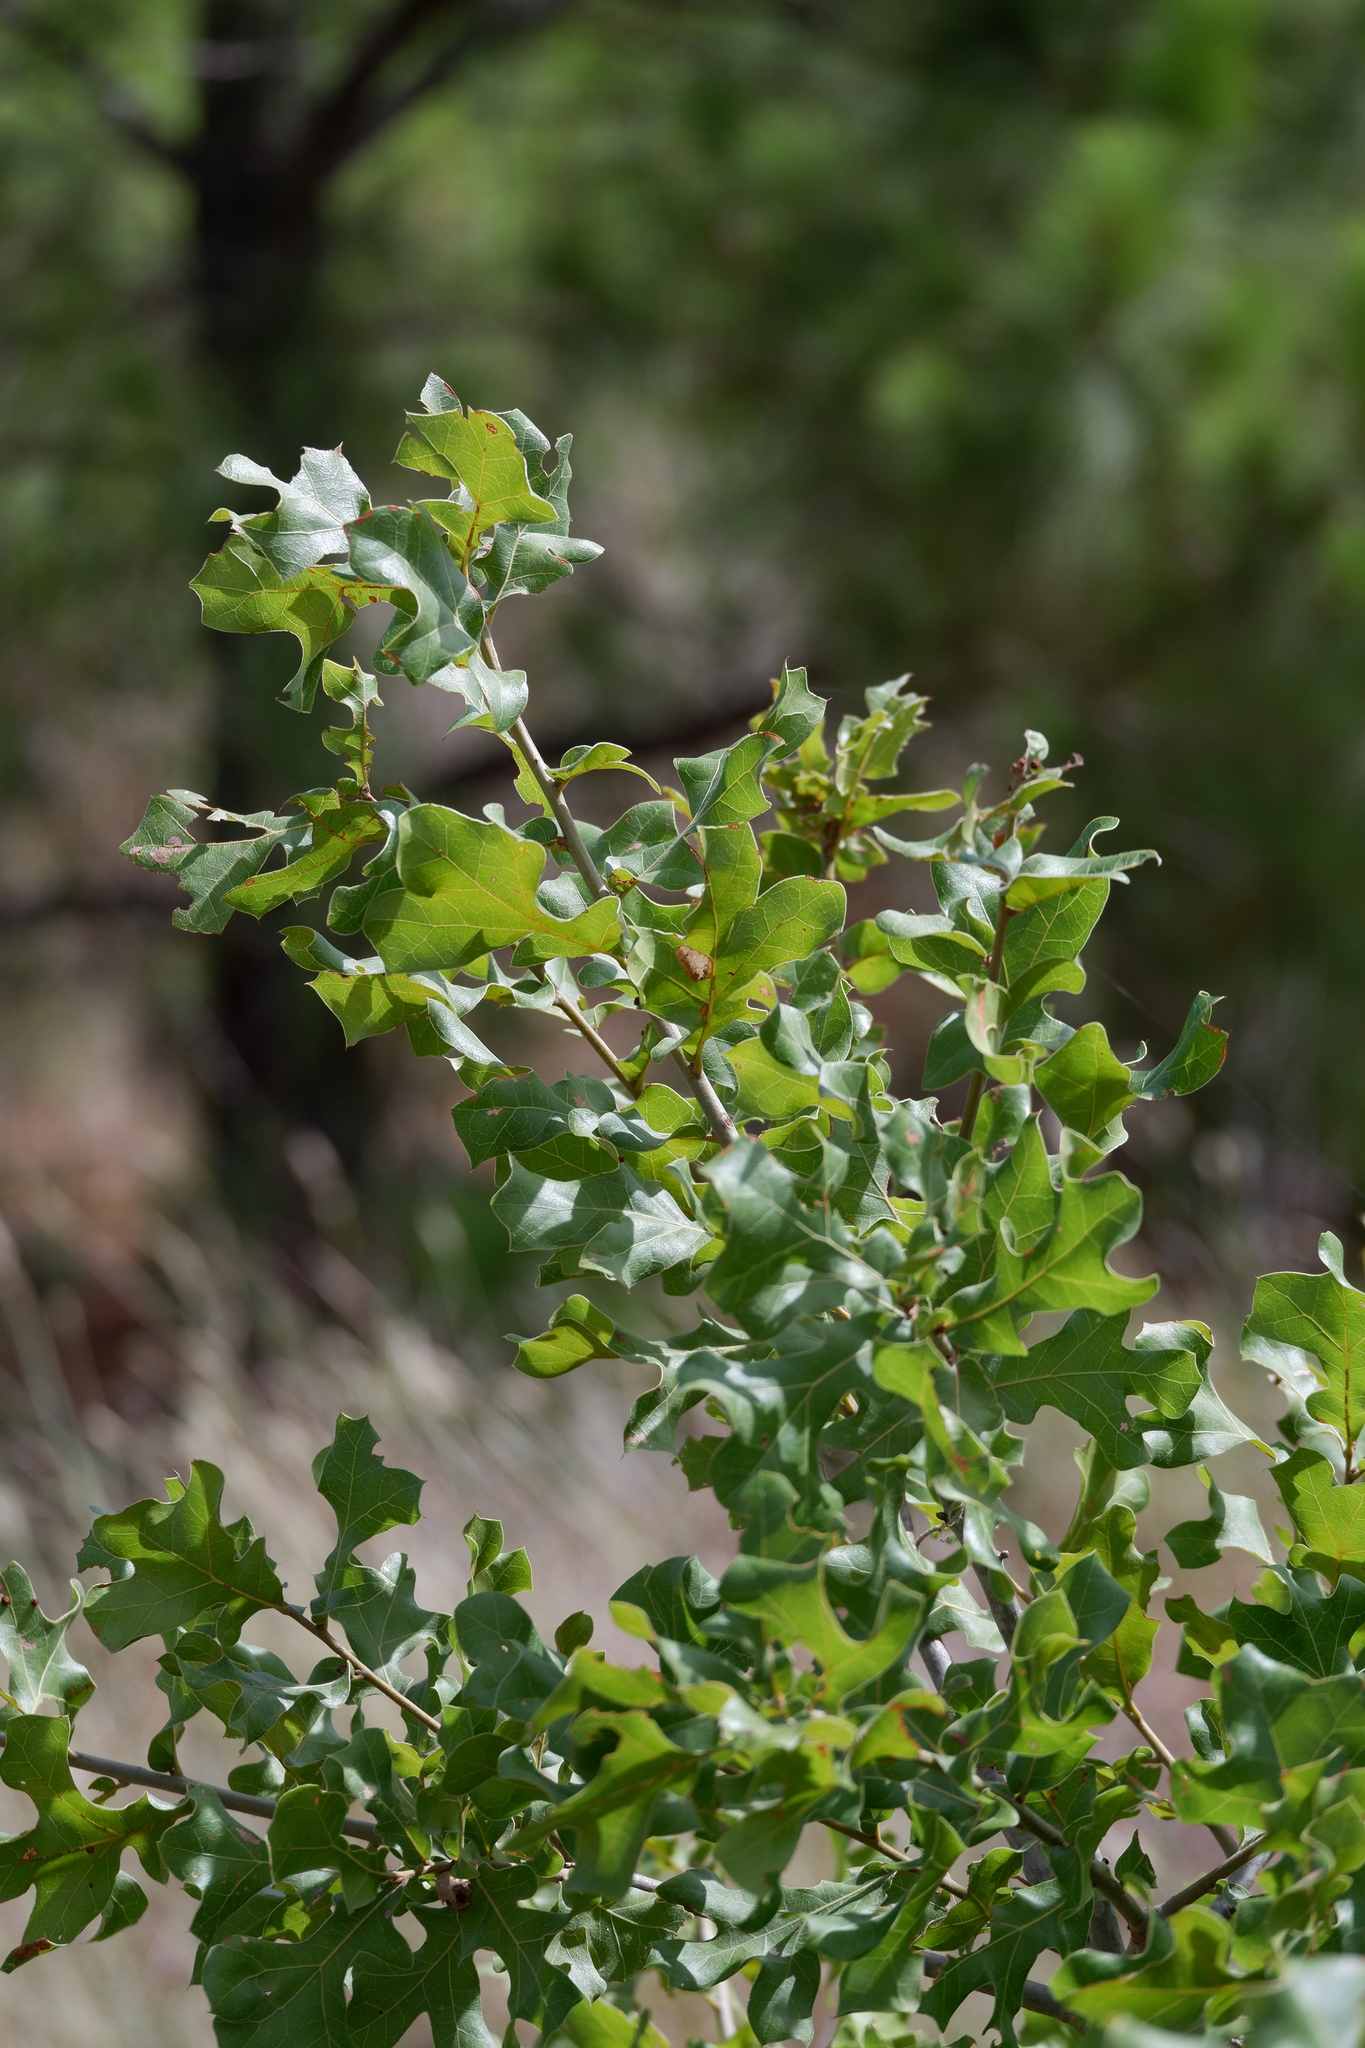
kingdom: Plantae
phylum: Tracheophyta
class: Magnoliopsida
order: Fagales
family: Fagaceae
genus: Quercus
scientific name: Quercus marilandica
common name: Blackjack oak
